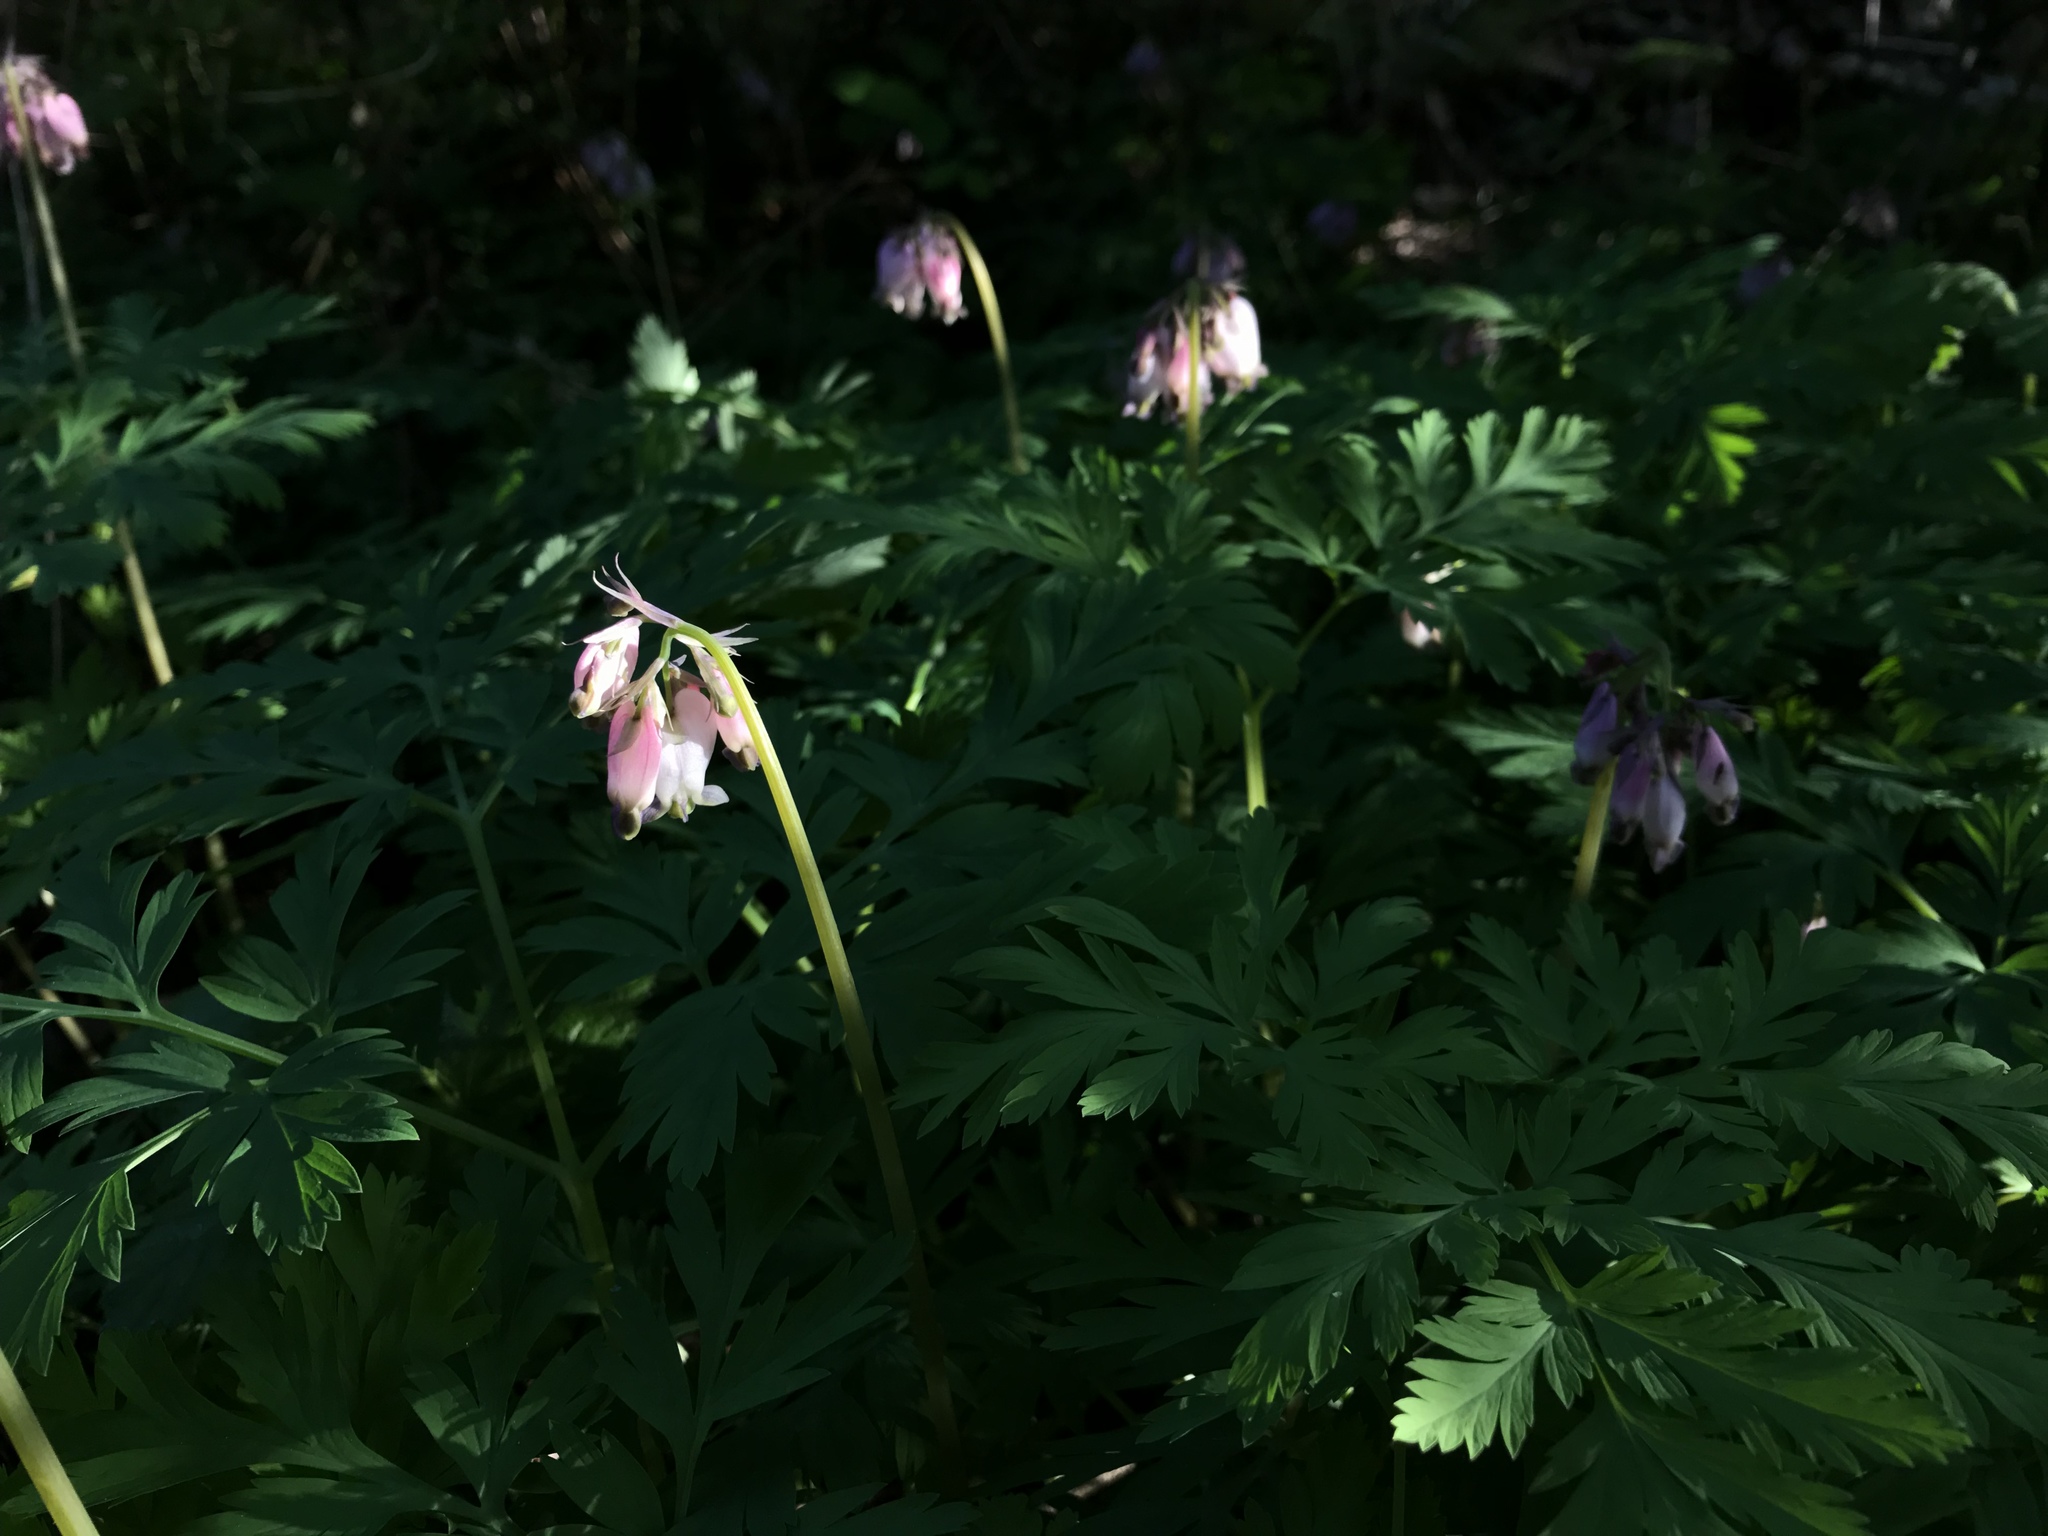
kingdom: Plantae
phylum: Tracheophyta
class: Magnoliopsida
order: Ranunculales
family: Papaveraceae
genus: Dicentra
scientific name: Dicentra formosa
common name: Bleeding-heart
